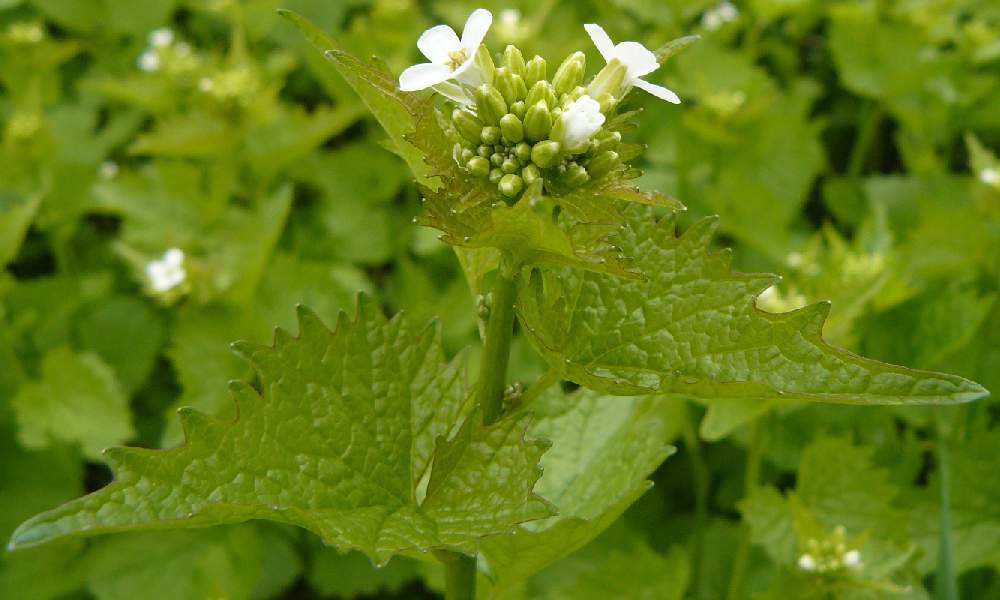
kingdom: Plantae
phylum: Tracheophyta
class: Magnoliopsida
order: Brassicales
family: Brassicaceae
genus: Alliaria
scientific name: Alliaria petiolata
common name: Garlic mustard
